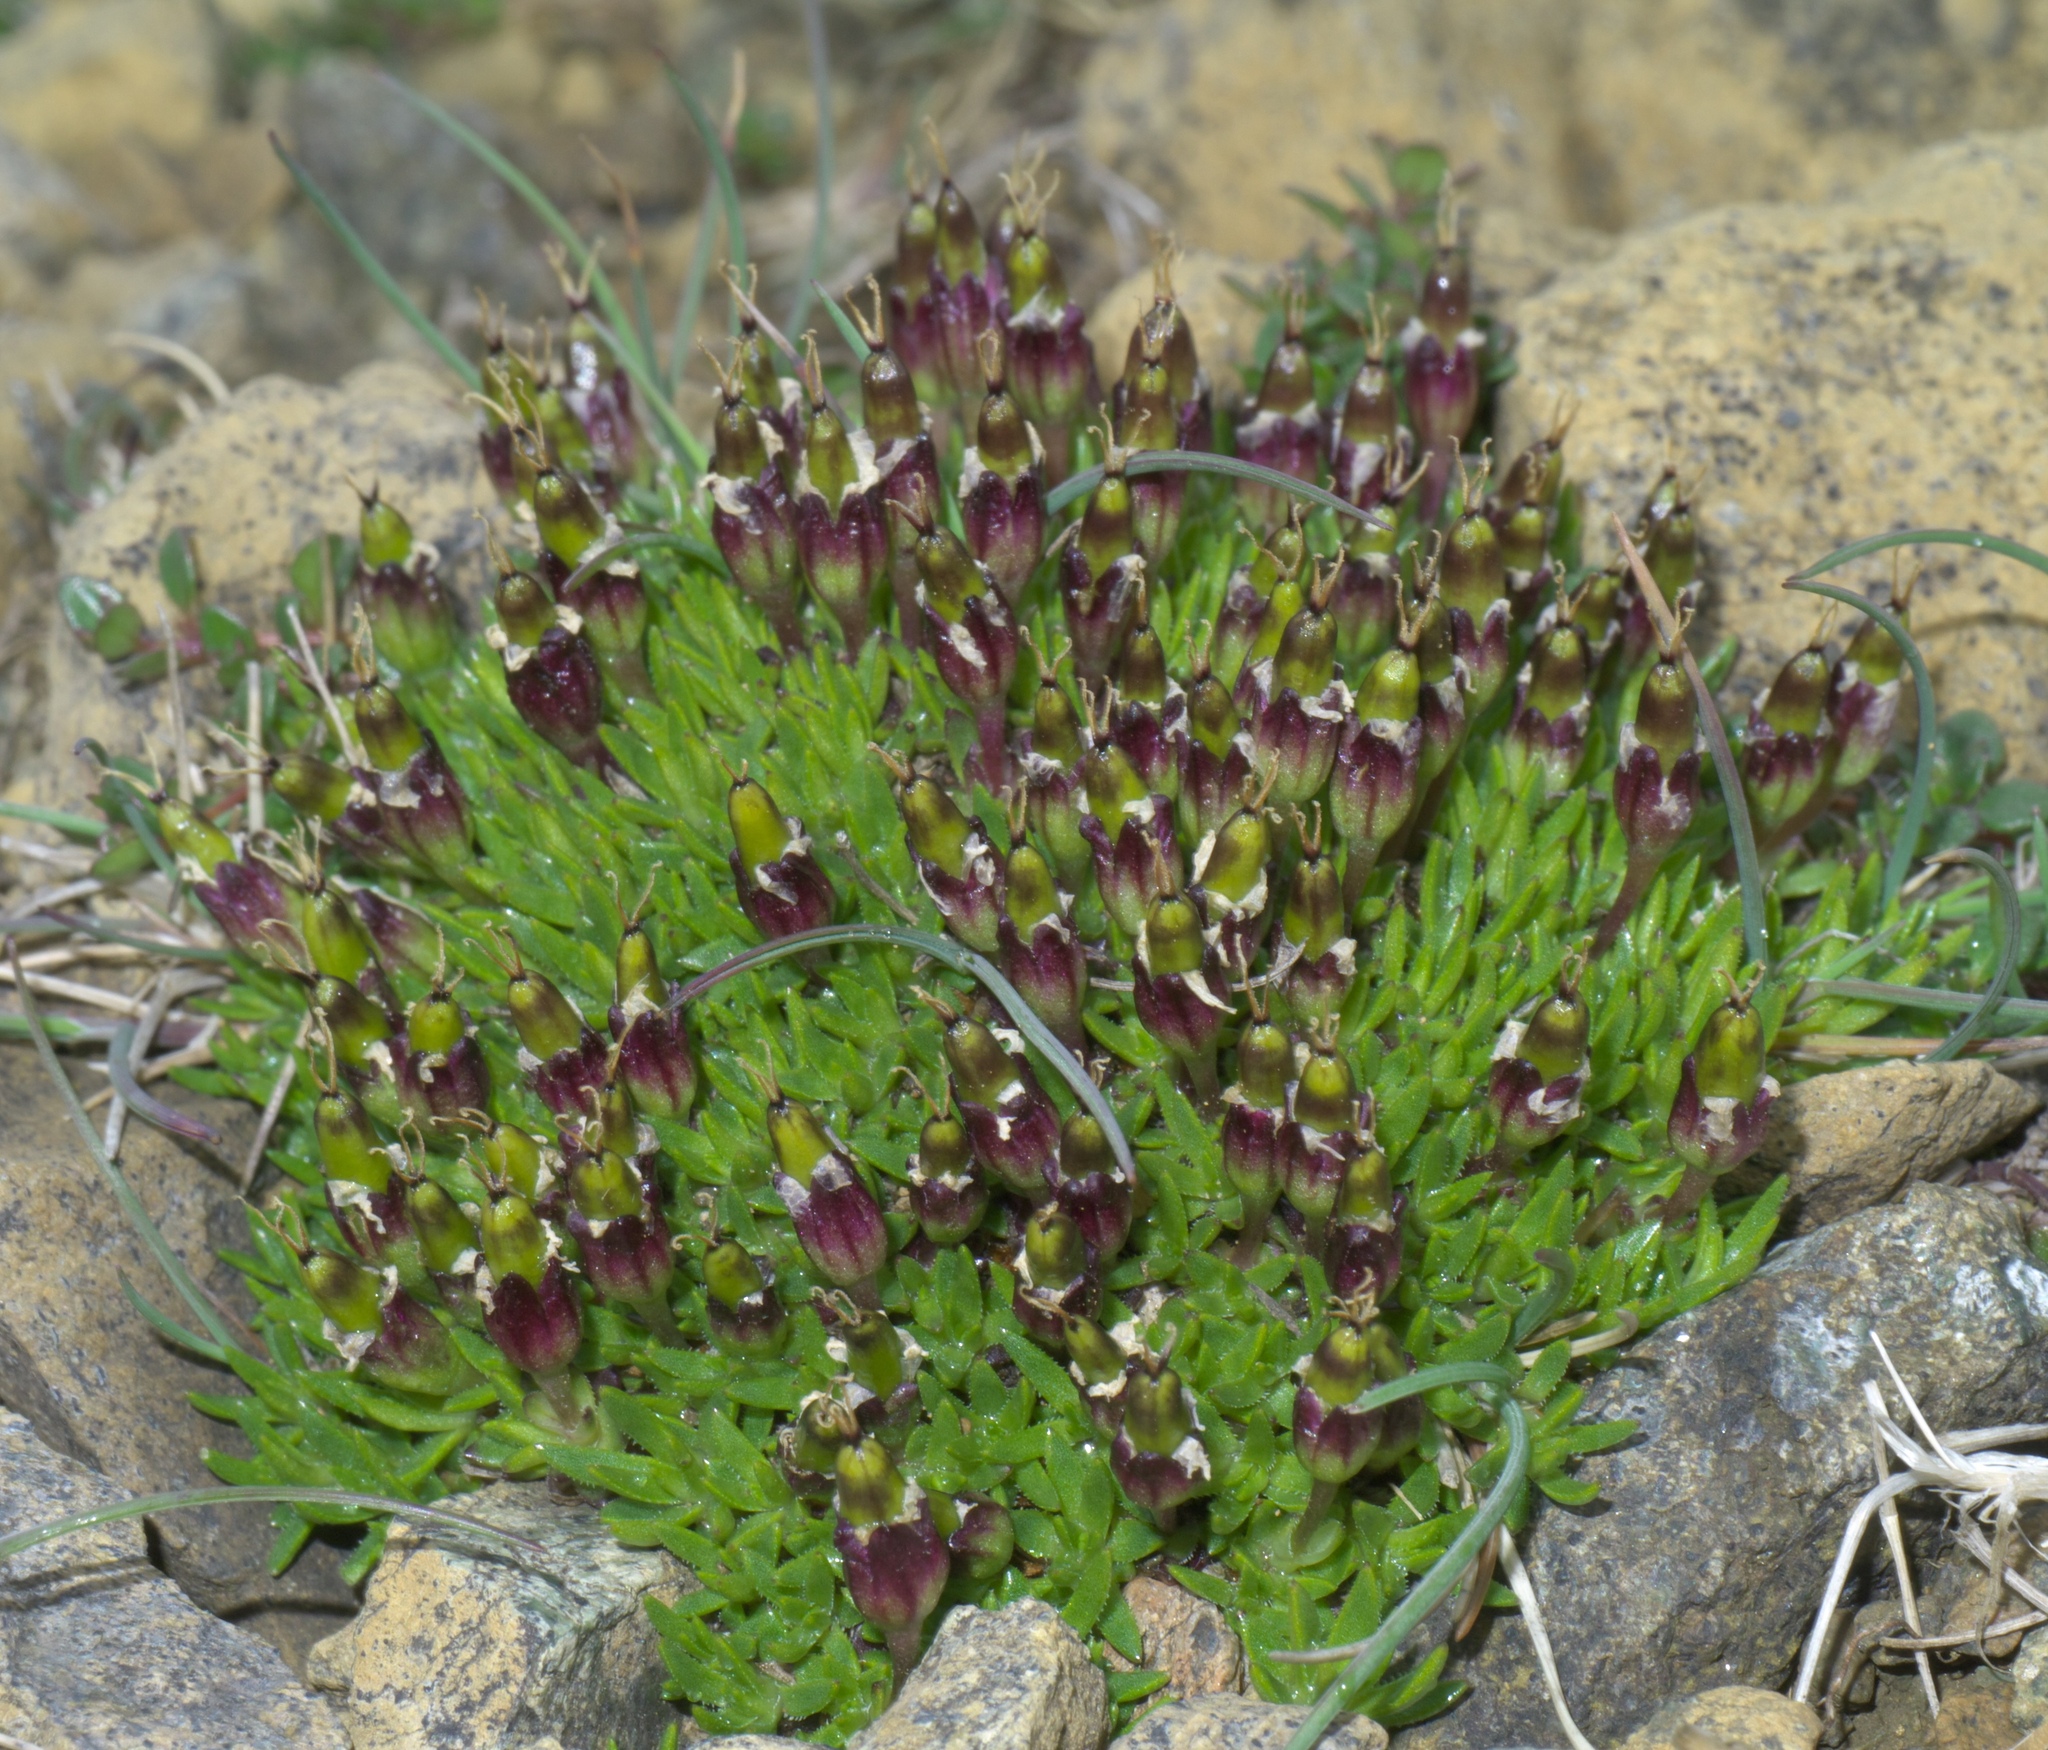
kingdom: Plantae
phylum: Tracheophyta
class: Magnoliopsida
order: Caryophyllales
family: Caryophyllaceae
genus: Silene
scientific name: Silene acaulis
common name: Moss campion
